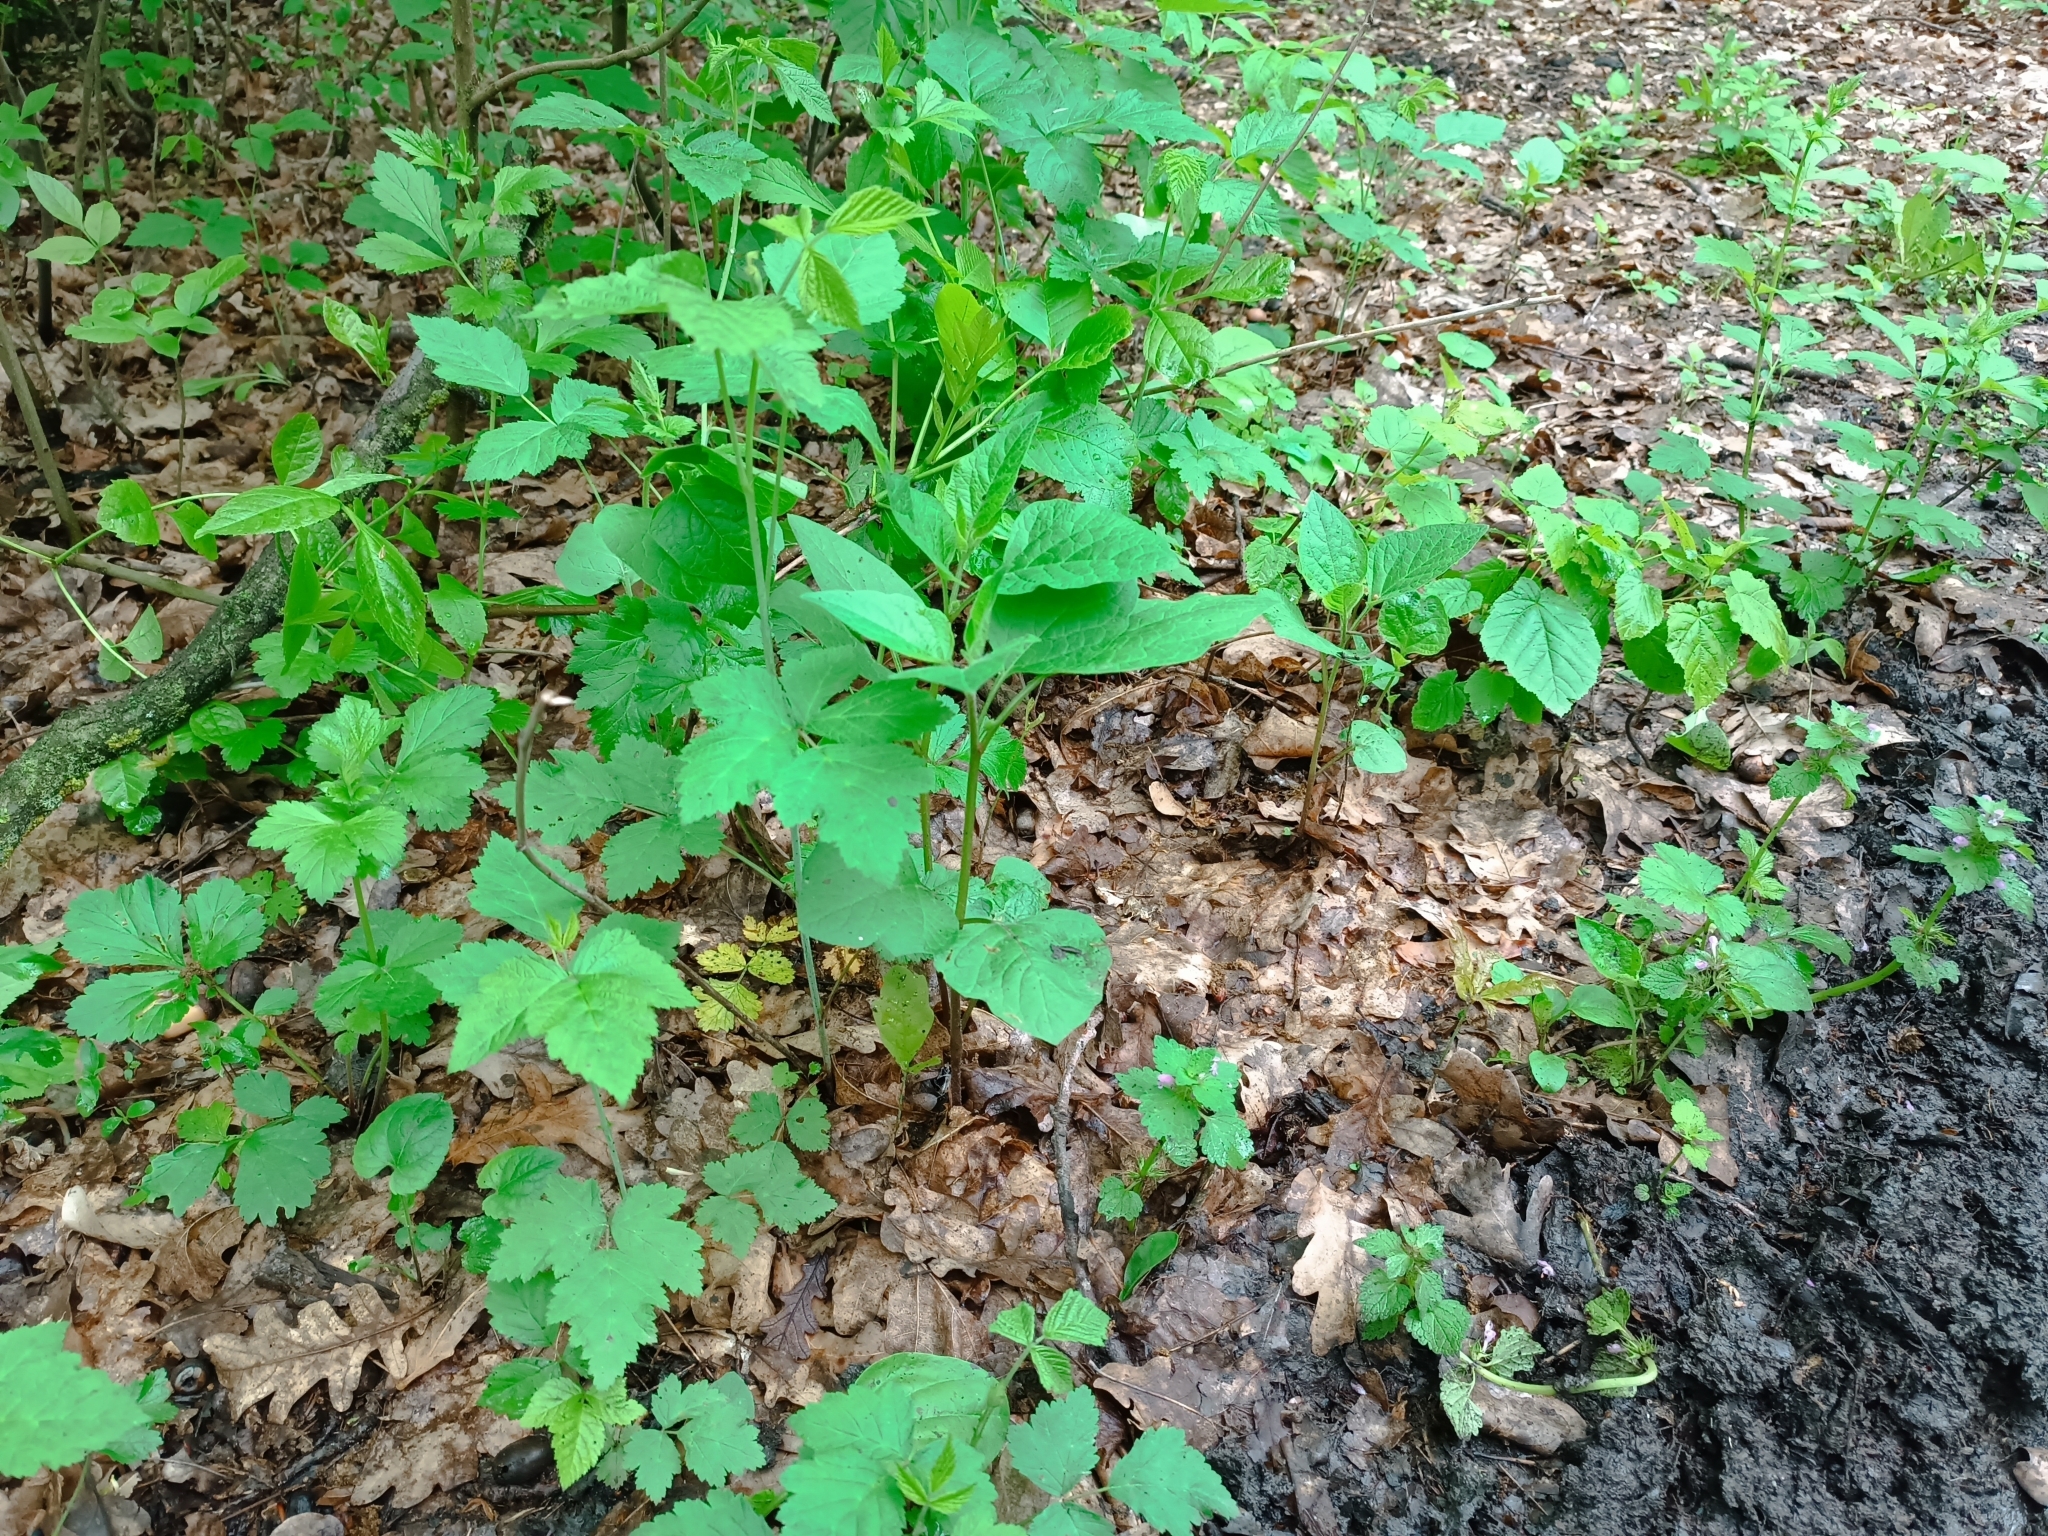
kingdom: Plantae
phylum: Tracheophyta
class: Magnoliopsida
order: Solanales
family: Solanaceae
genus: Alkekengi
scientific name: Alkekengi officinarum
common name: Japanese-lantern
